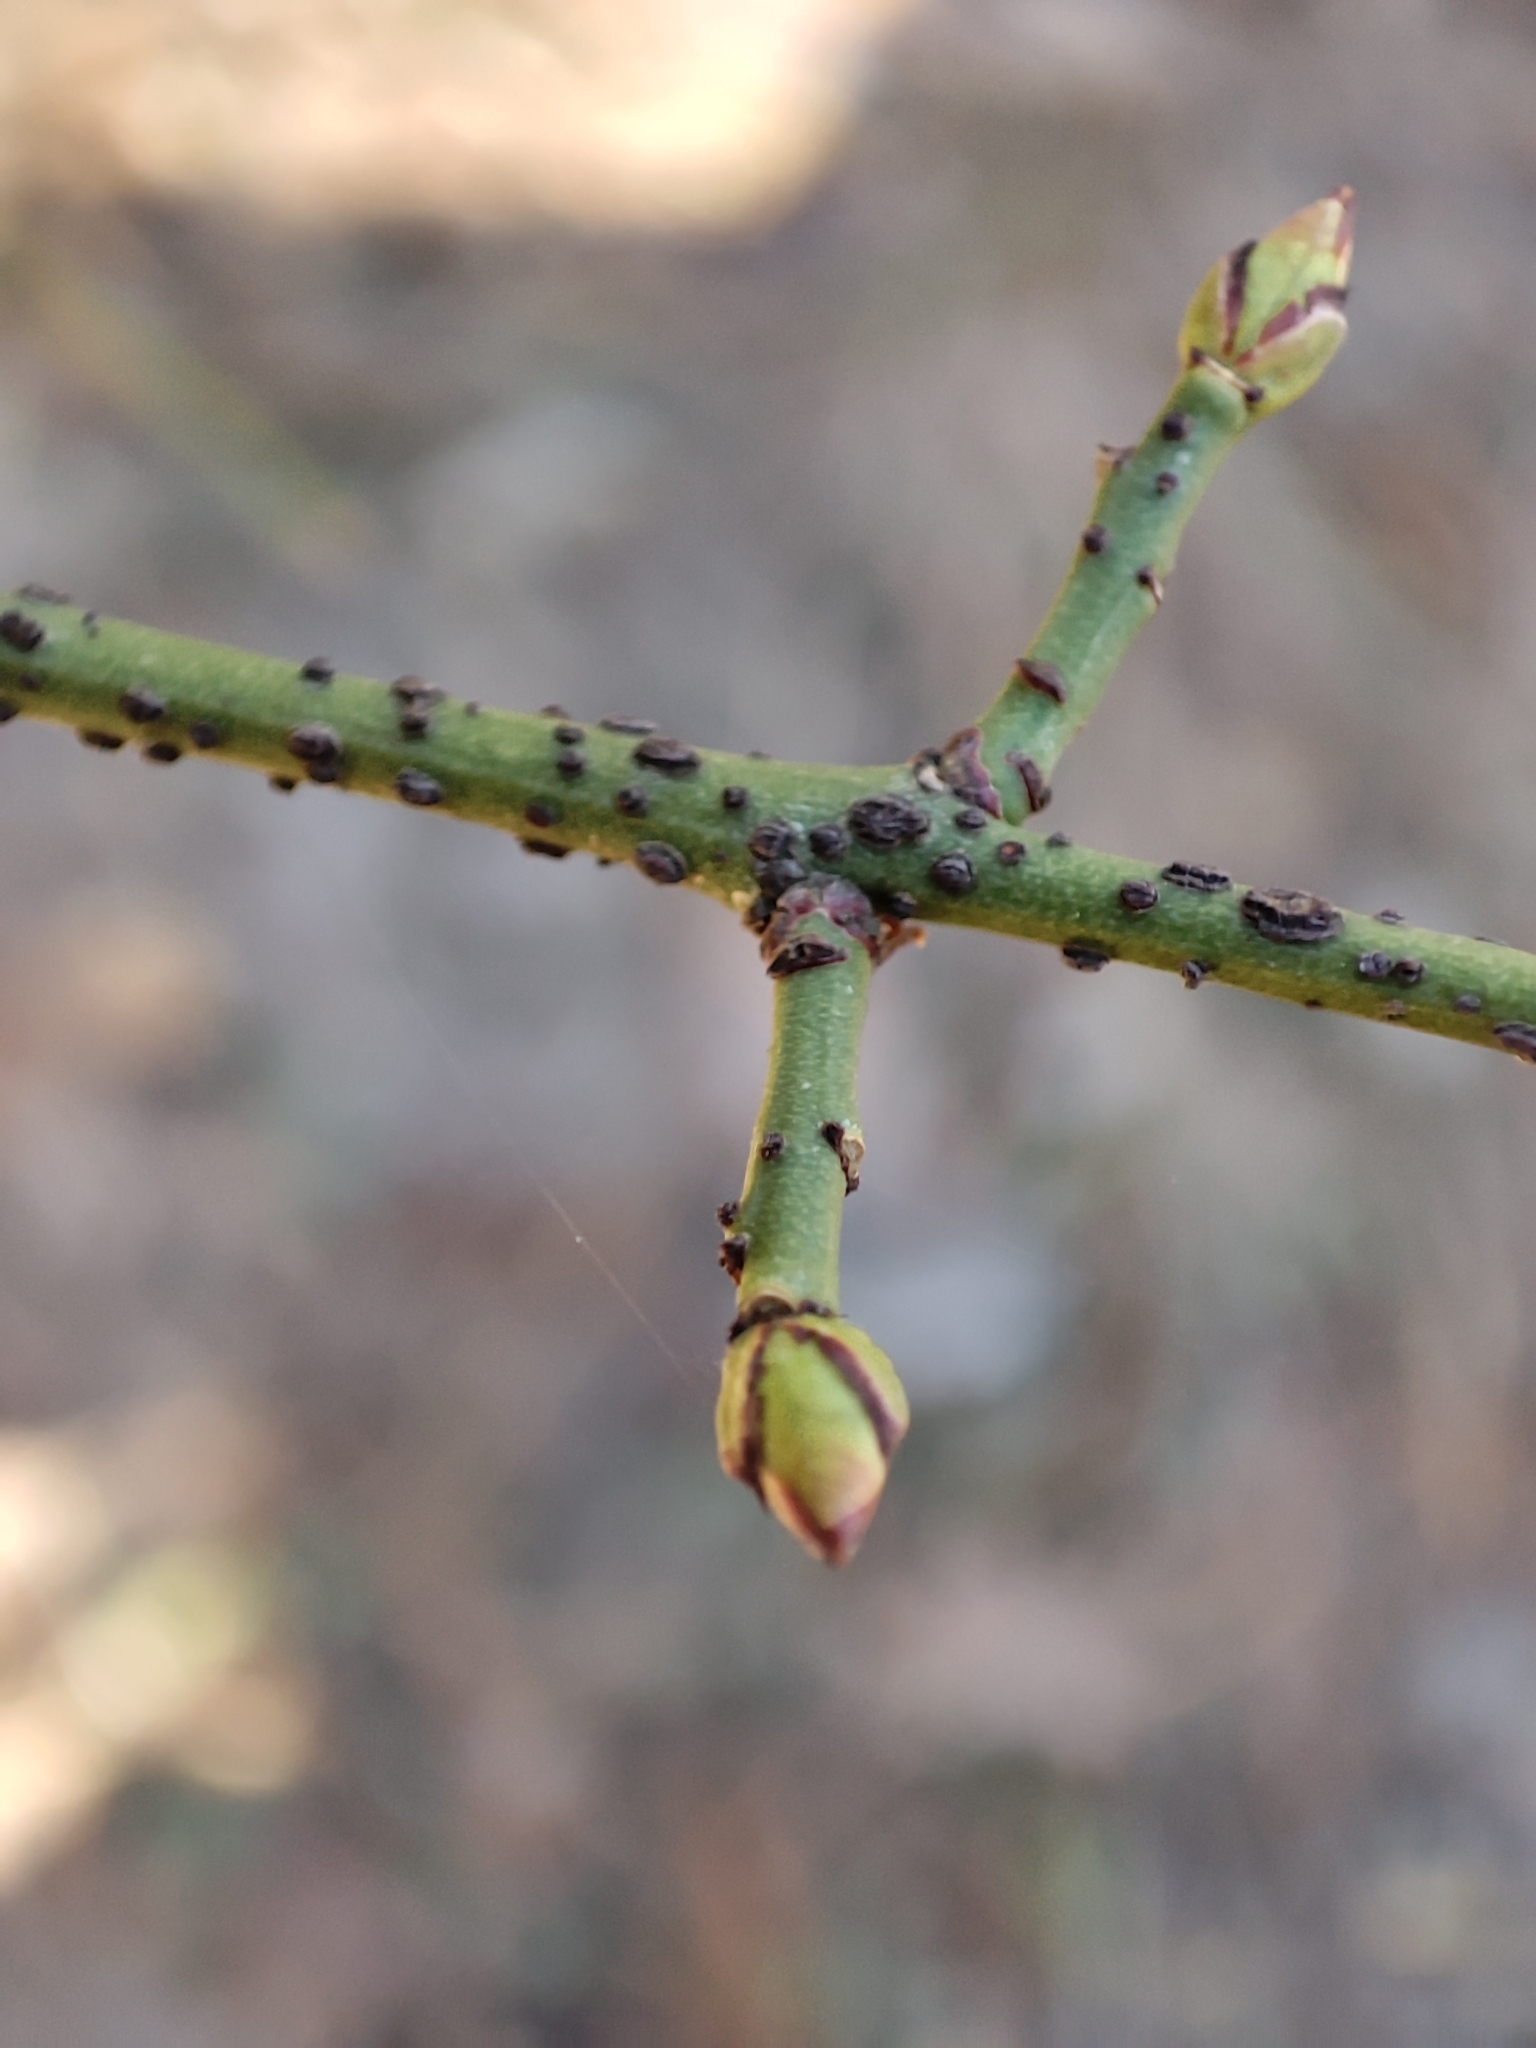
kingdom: Plantae
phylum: Tracheophyta
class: Magnoliopsida
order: Celastrales
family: Celastraceae
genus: Euonymus
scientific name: Euonymus verrucosus
